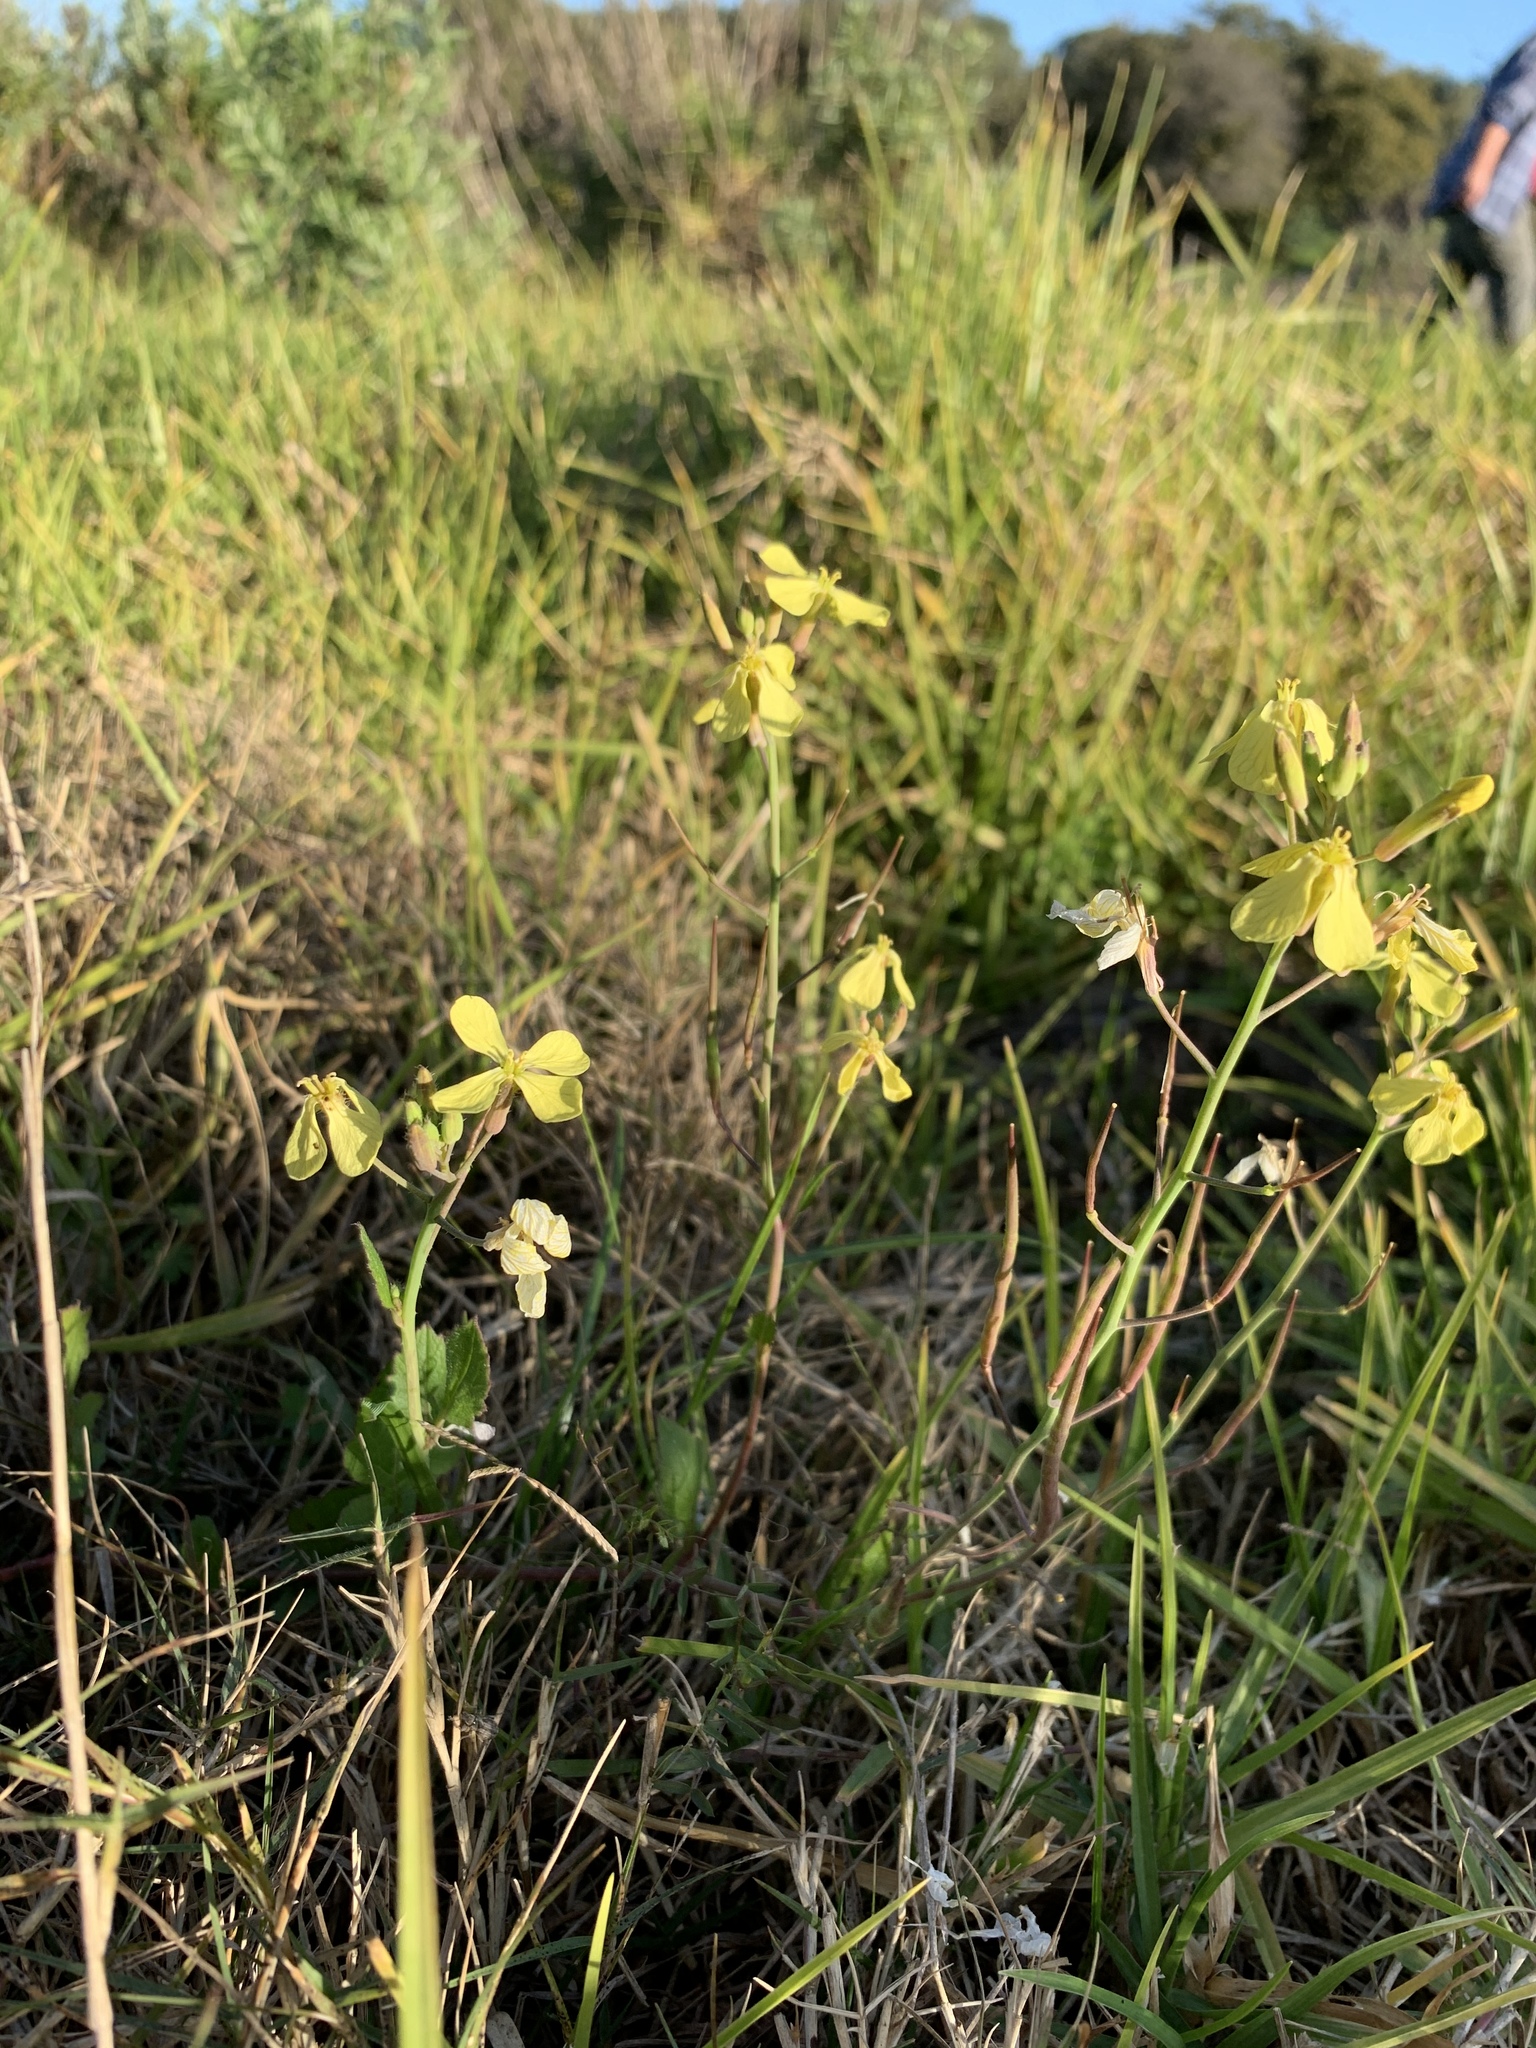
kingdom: Plantae
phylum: Tracheophyta
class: Magnoliopsida
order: Brassicales
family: Brassicaceae
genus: Raphanus
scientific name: Raphanus raphanistrum
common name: Wild radish
